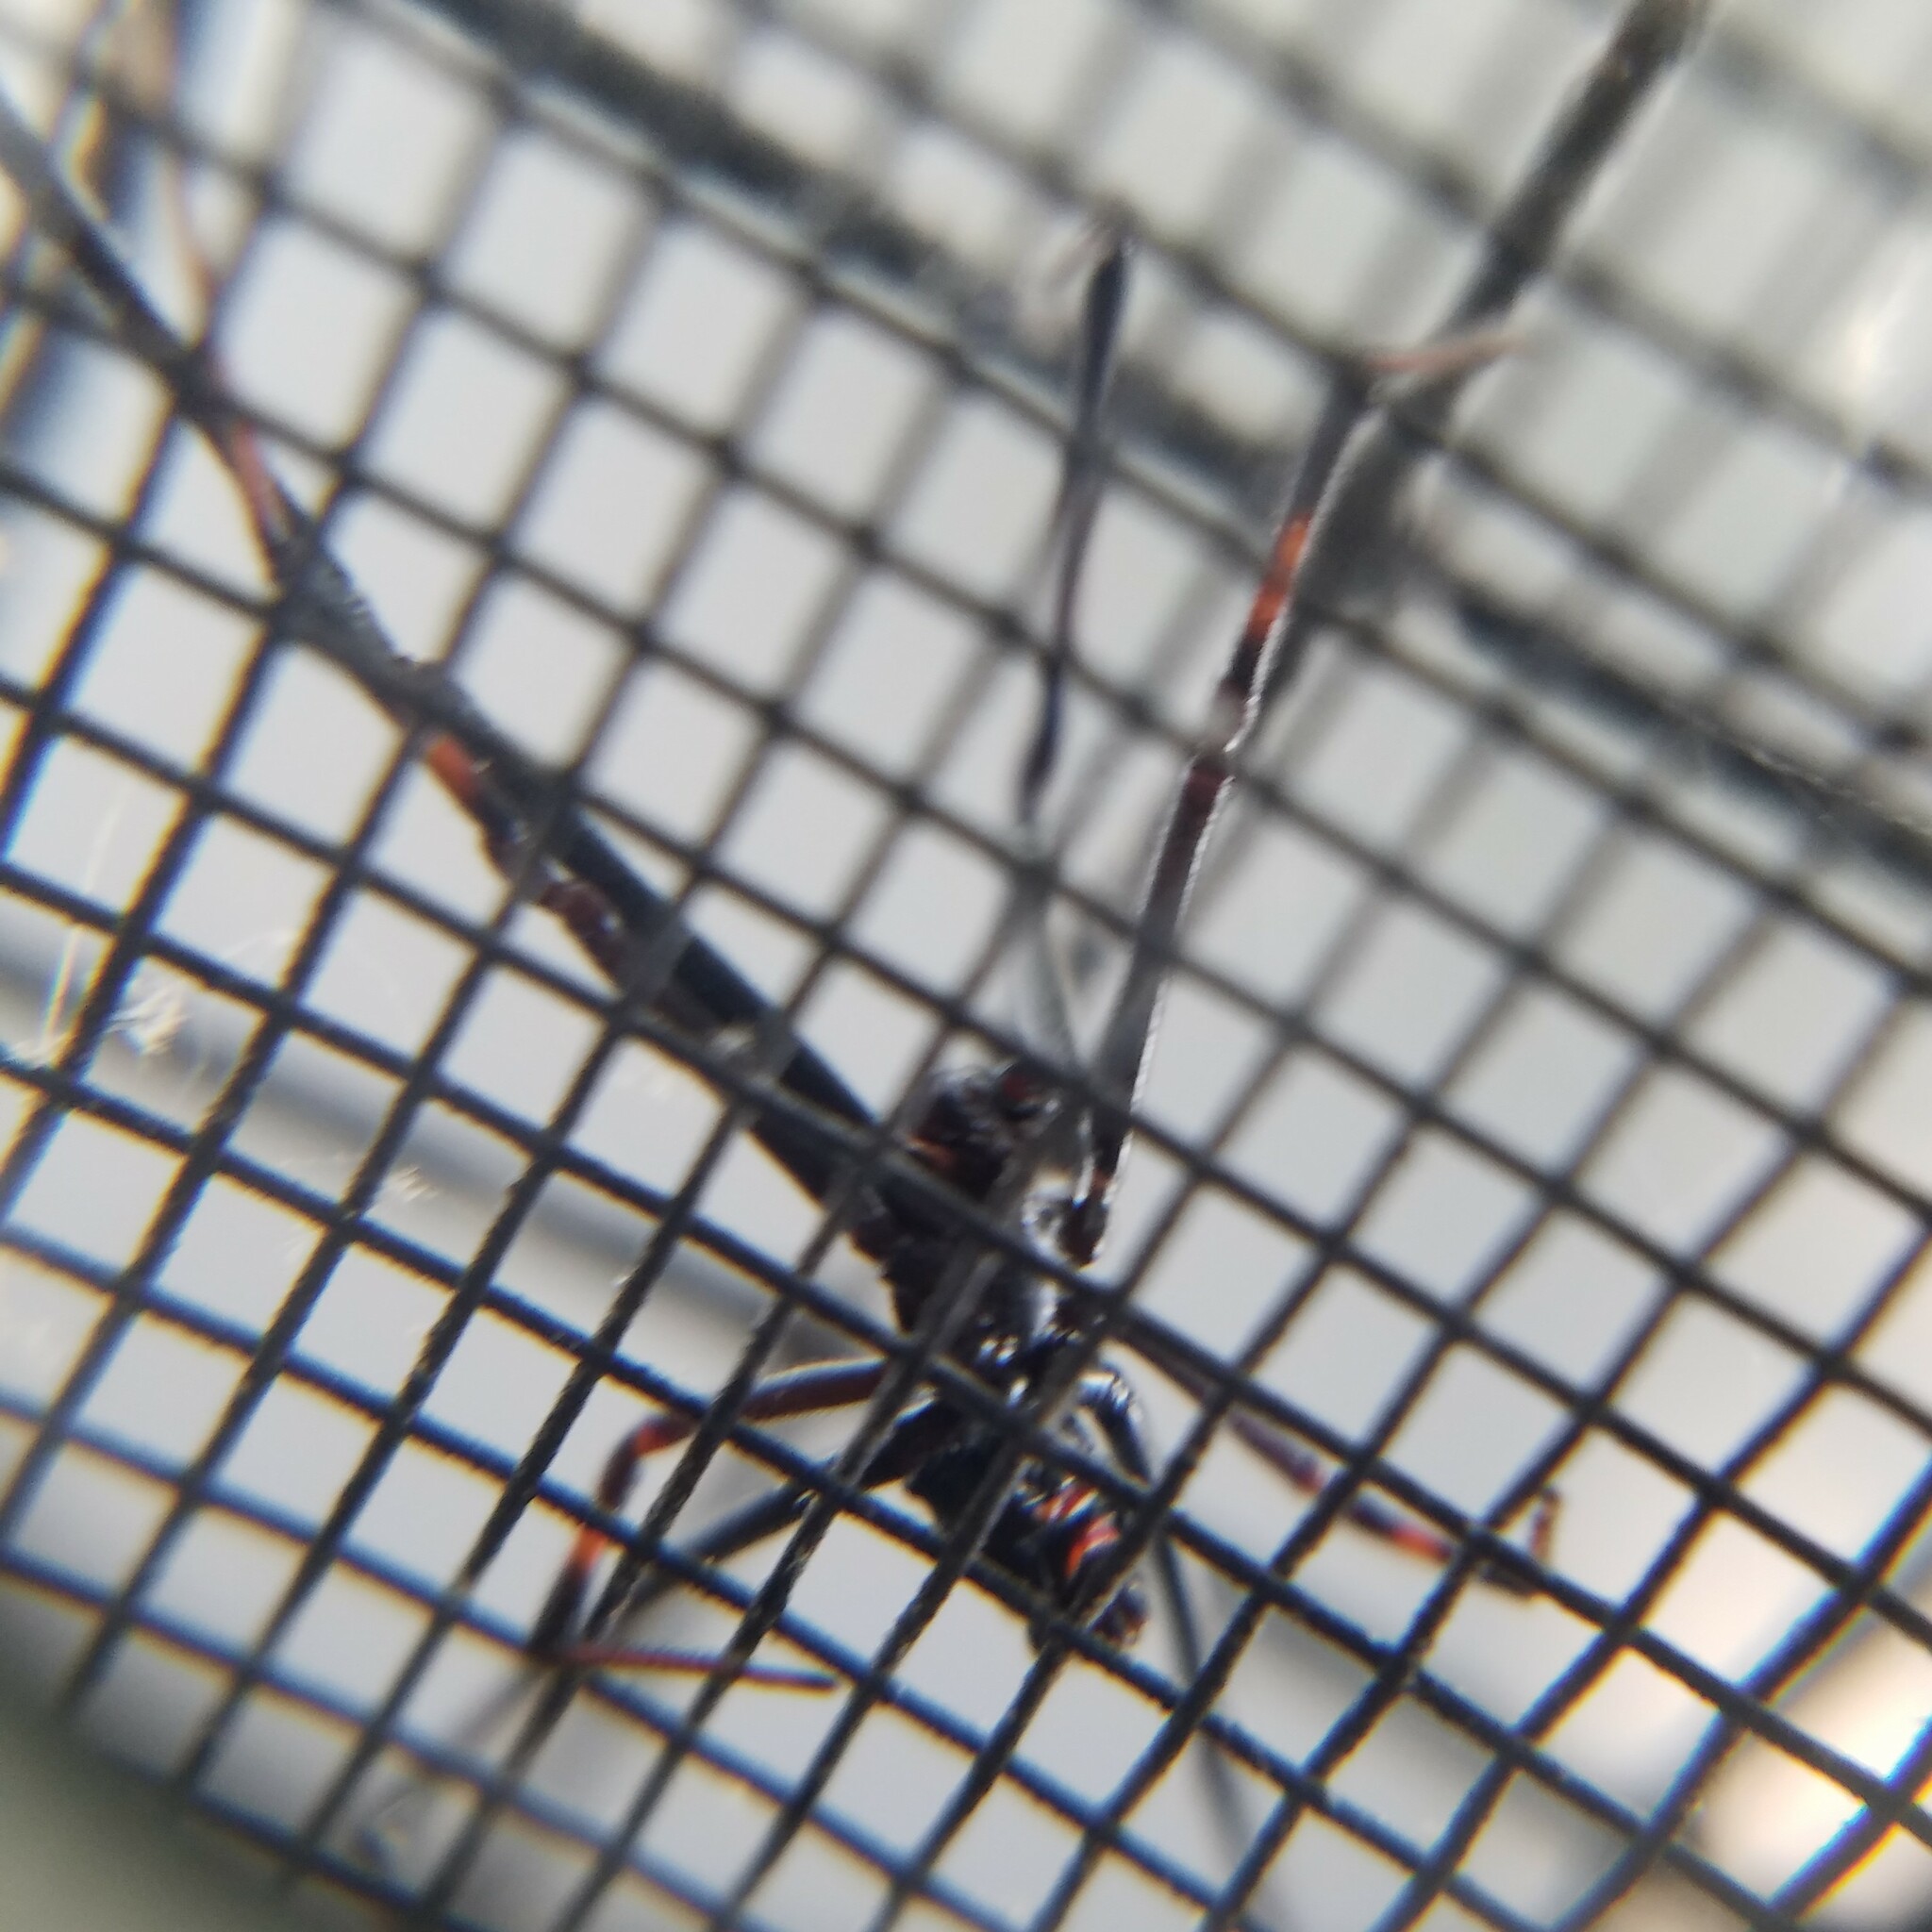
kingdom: Animalia
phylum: Arthropoda
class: Arachnida
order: Araneae
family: Theridiidae
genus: Latrodectus
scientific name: Latrodectus variolus
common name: Northern black widow
